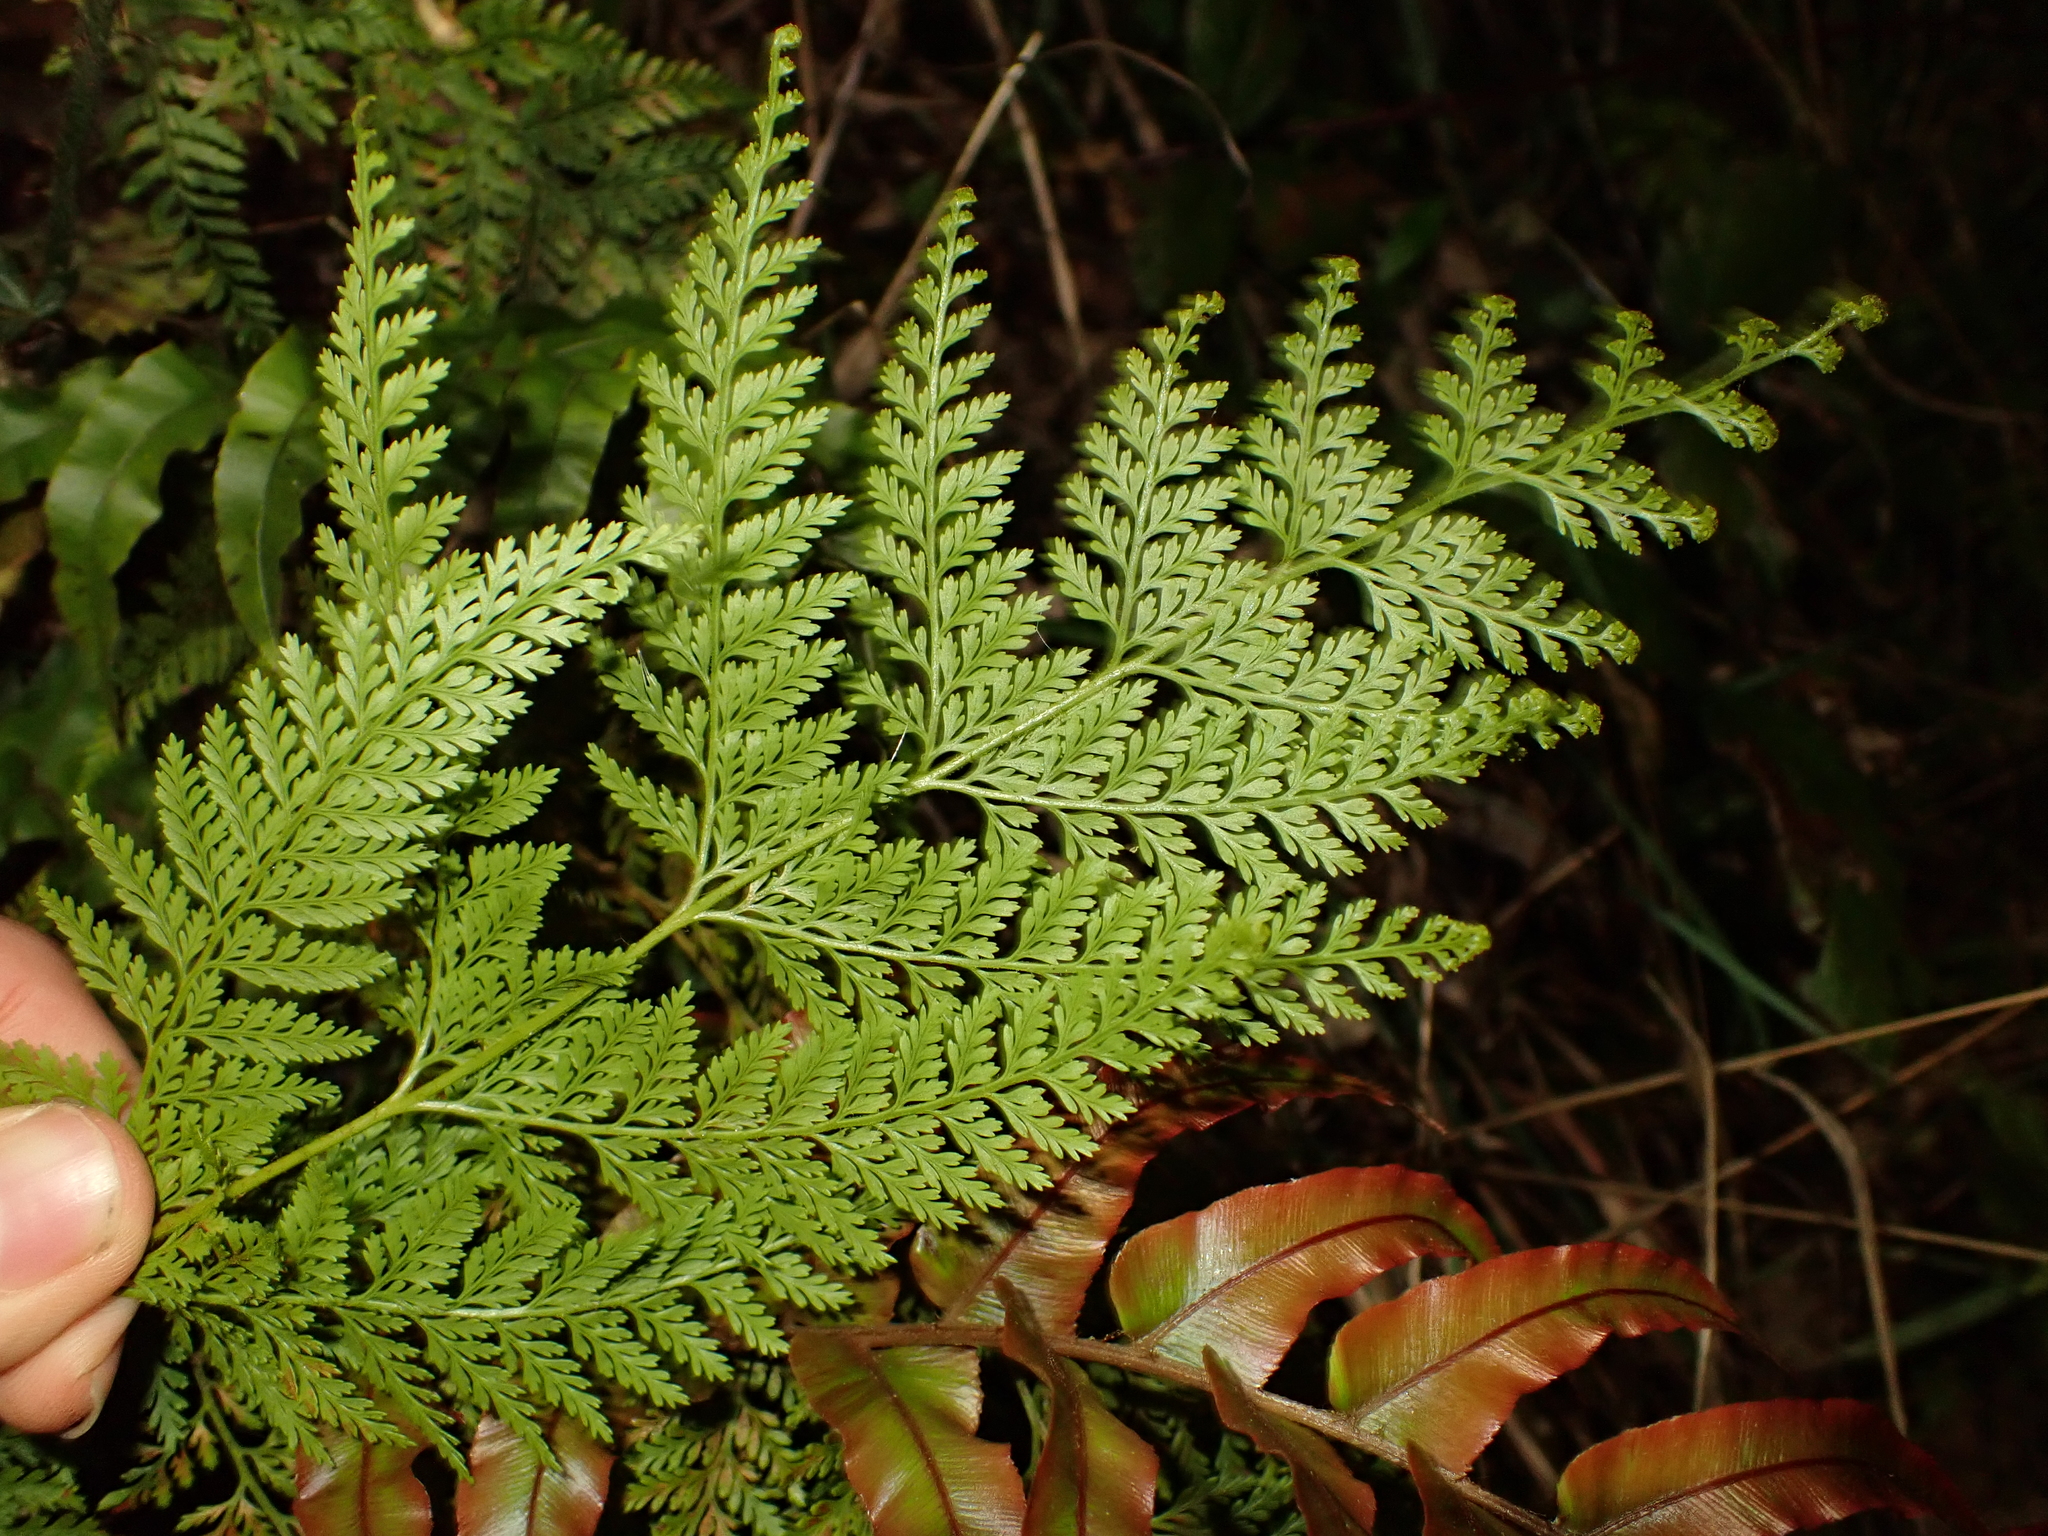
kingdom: Plantae
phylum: Tracheophyta
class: Polypodiopsida
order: Polypodiales
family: Dennstaedtiaceae
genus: Paesia
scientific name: Paesia scaberula
